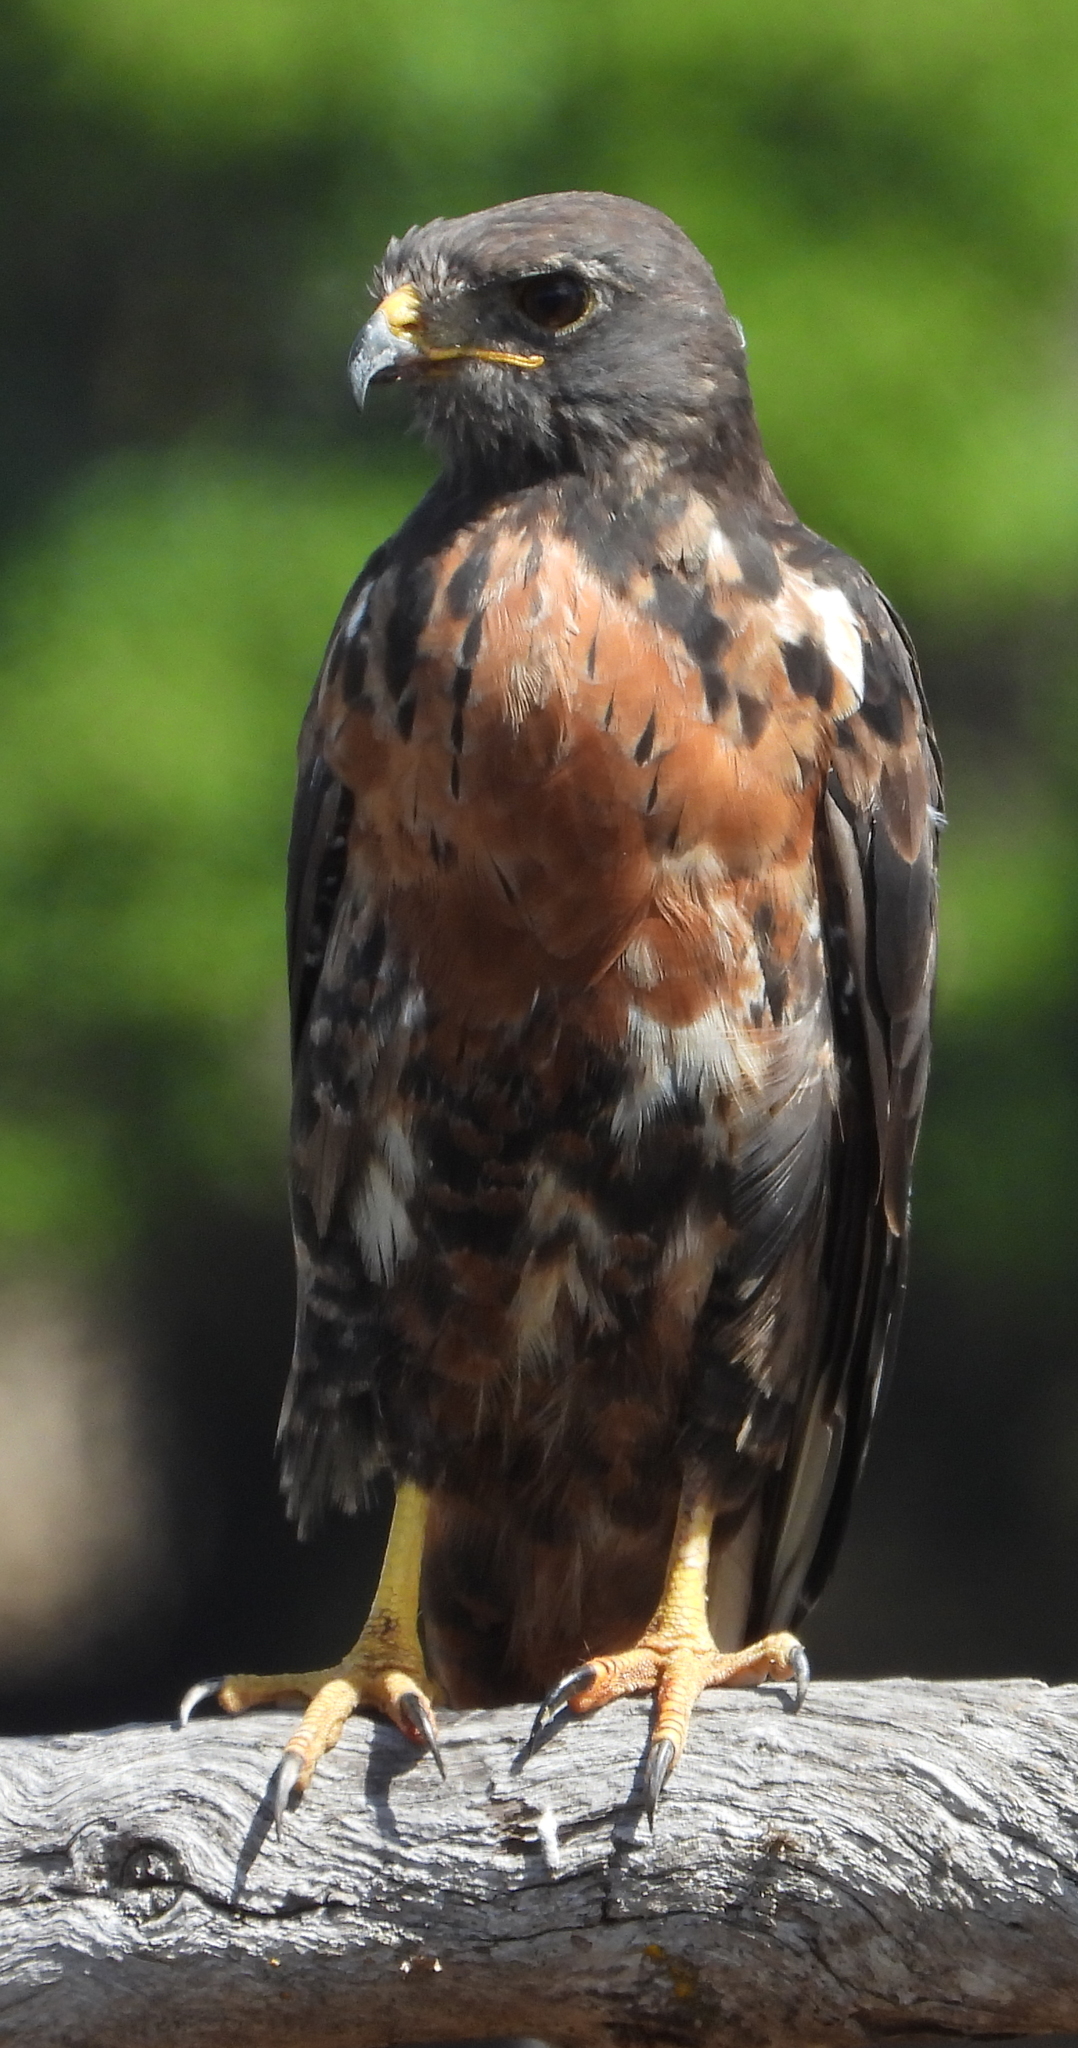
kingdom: Animalia
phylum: Chordata
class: Aves
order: Accipitriformes
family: Accipitridae
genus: Buteo
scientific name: Buteo rufofuscus
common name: Jackal buzzard
